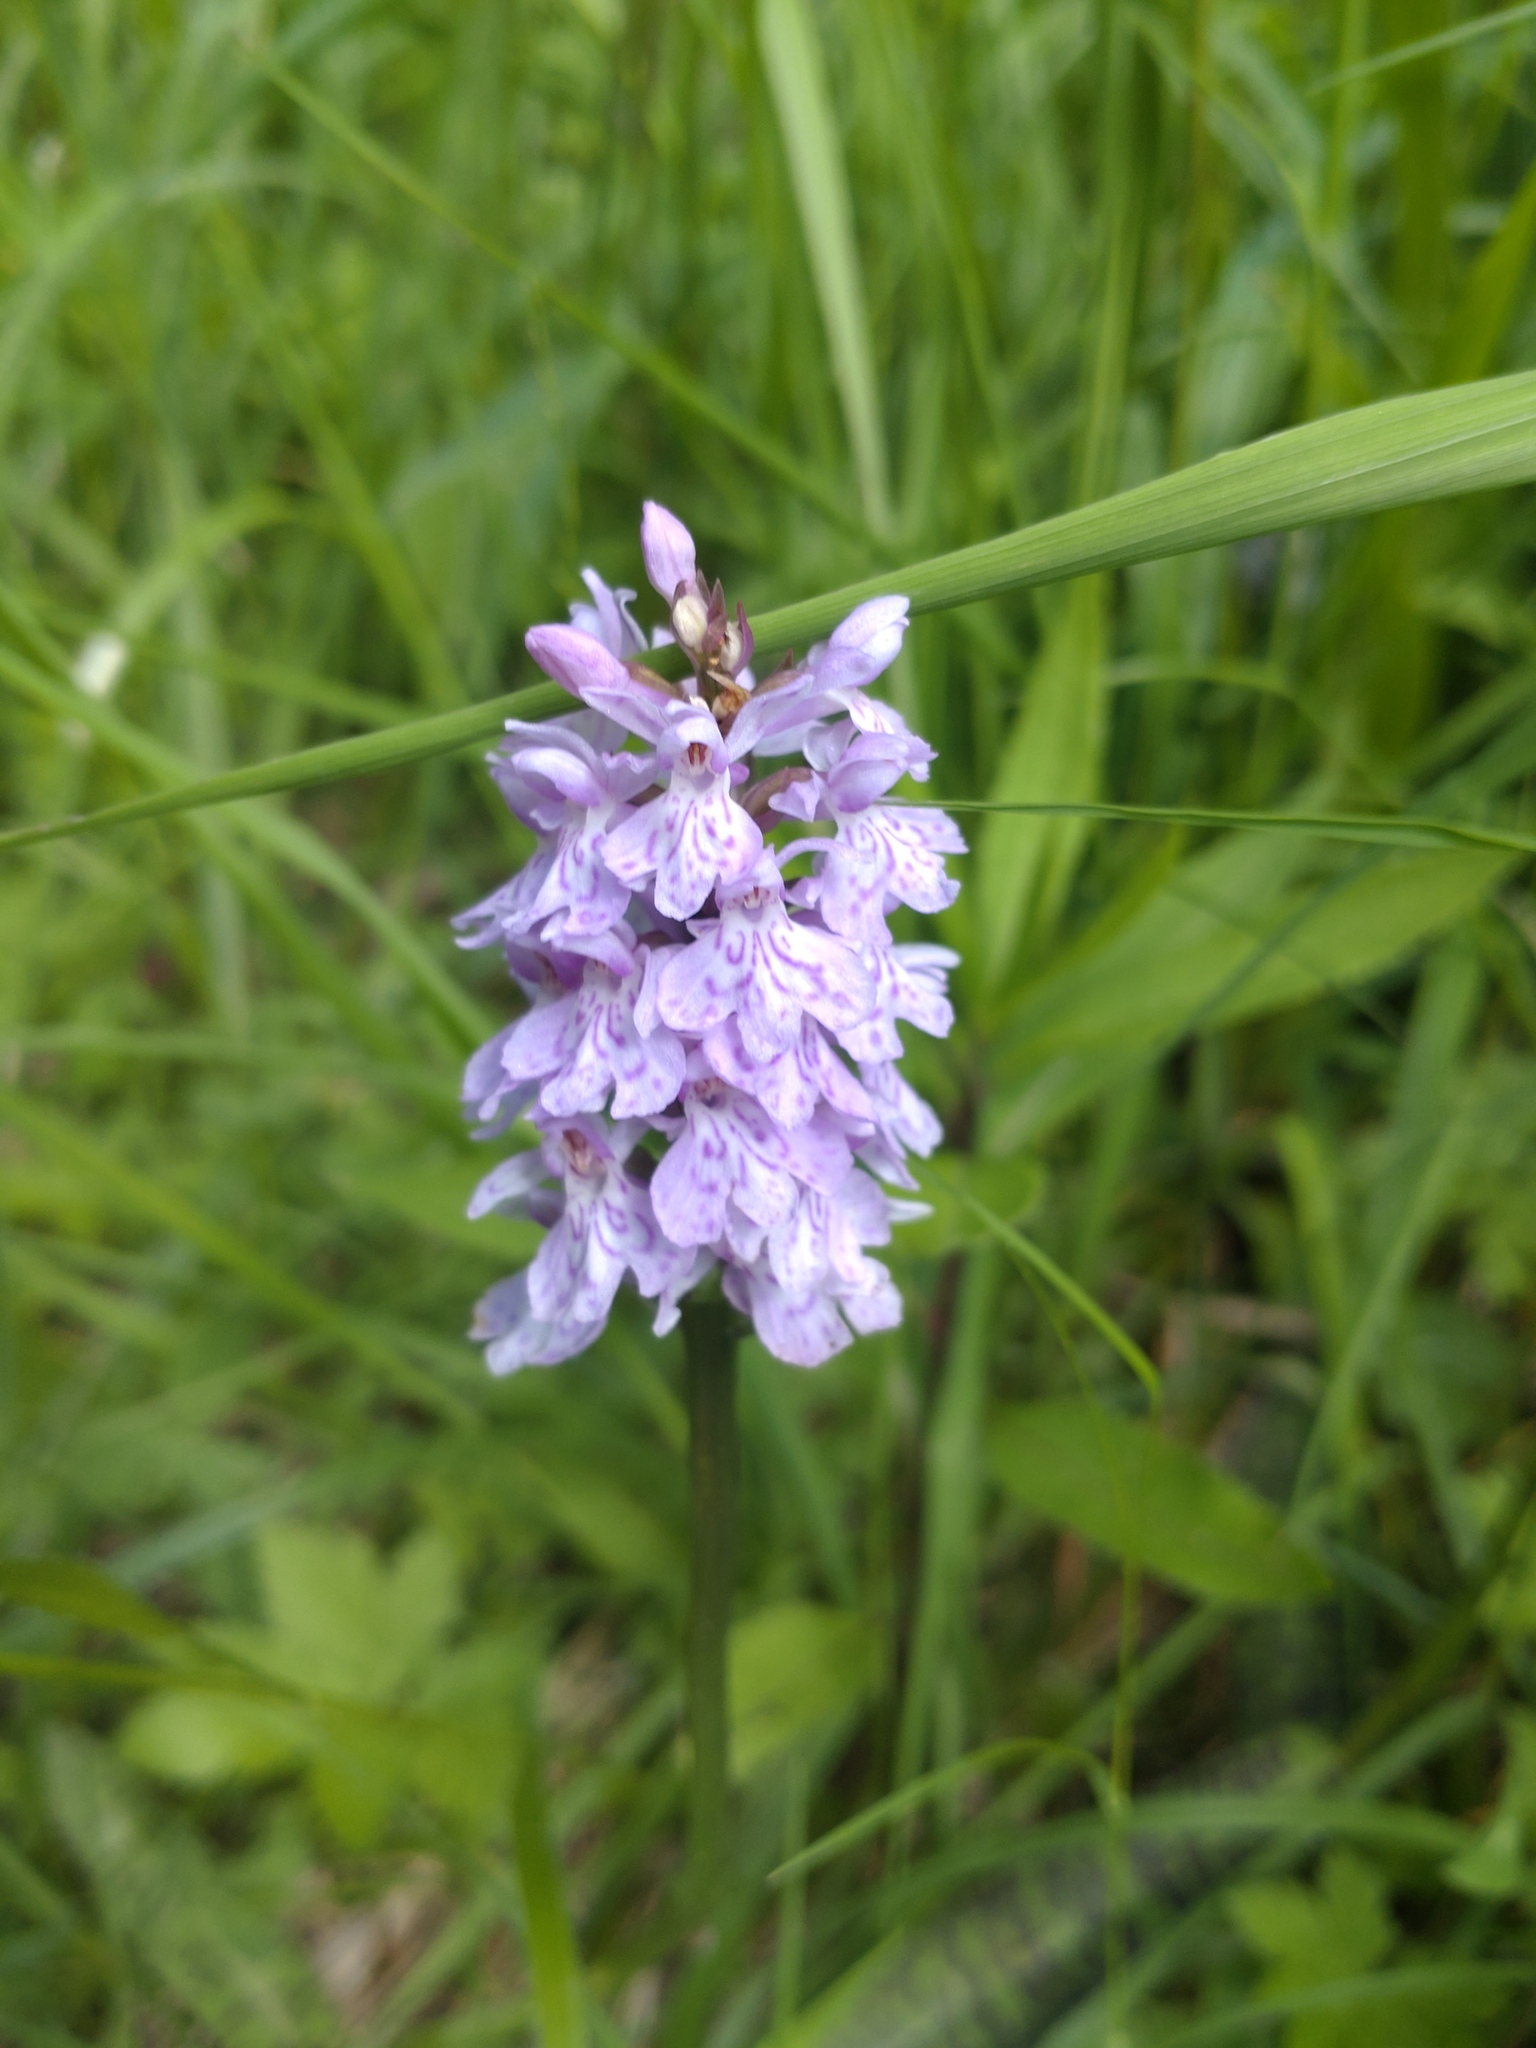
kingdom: Plantae
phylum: Tracheophyta
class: Liliopsida
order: Asparagales
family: Orchidaceae
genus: Dactylorhiza
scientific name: Dactylorhiza maculata
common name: Heath spotted-orchid
